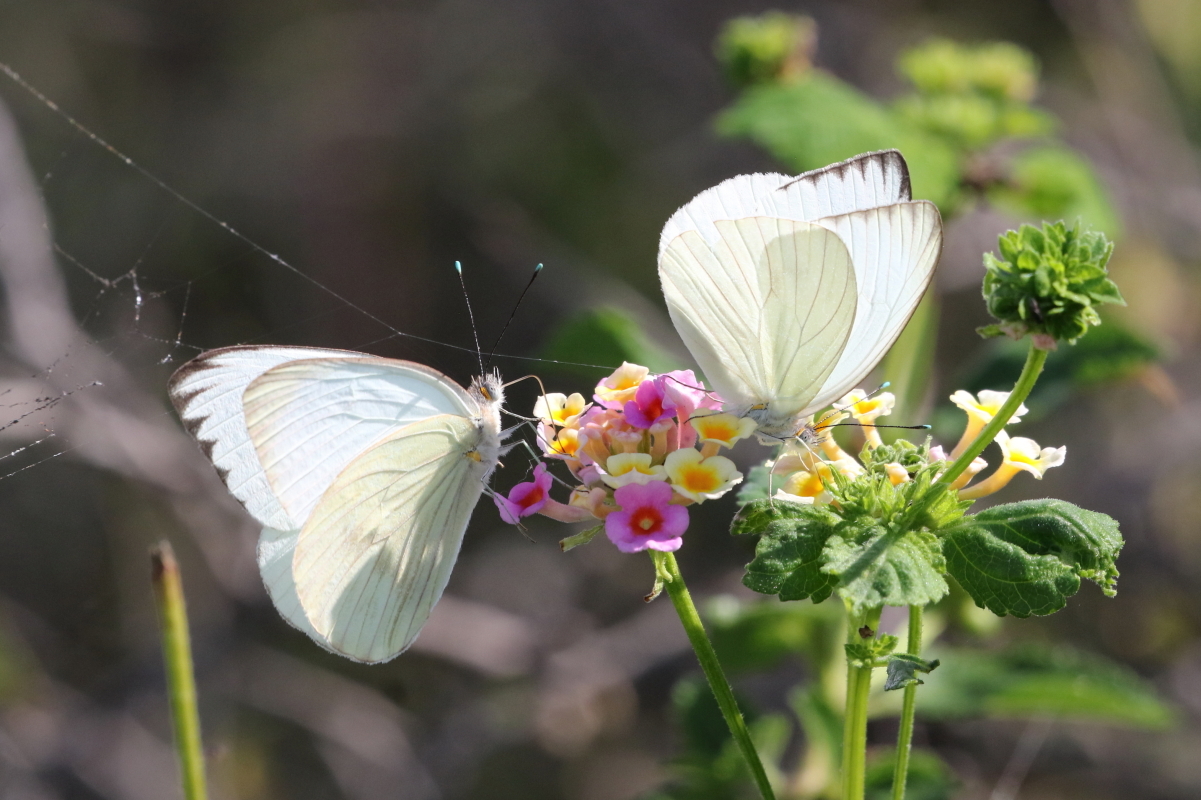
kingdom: Animalia
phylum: Arthropoda
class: Insecta
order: Lepidoptera
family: Pieridae
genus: Ascia
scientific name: Ascia monuste
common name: Great southern white
